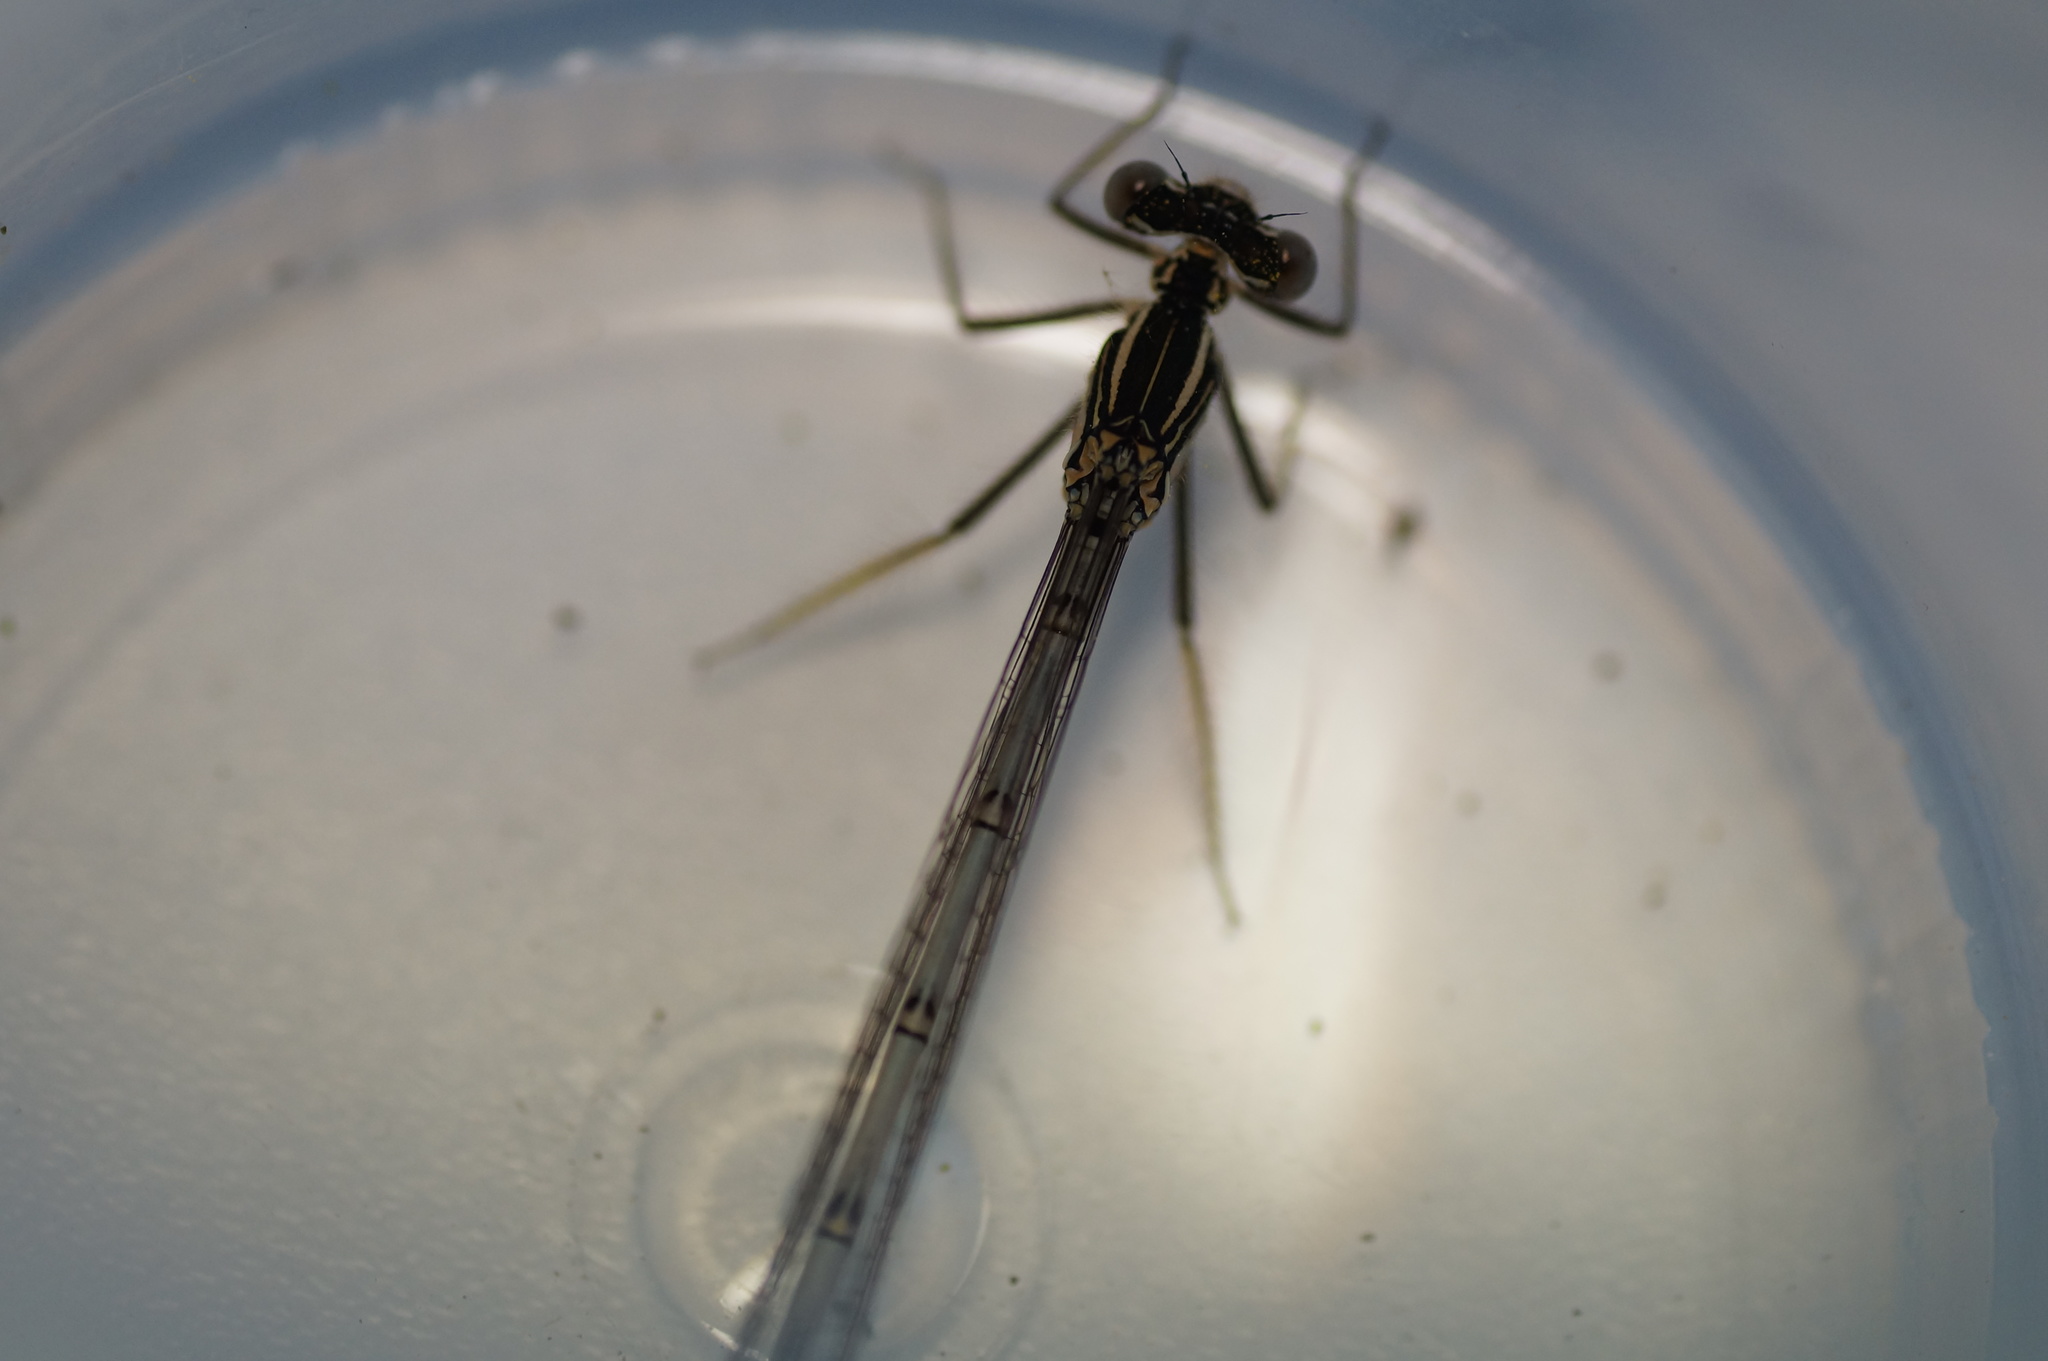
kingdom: Animalia
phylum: Arthropoda
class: Insecta
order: Odonata
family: Platycnemididae
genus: Platycnemis
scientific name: Platycnemis pennipes
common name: White-legged damselfly
